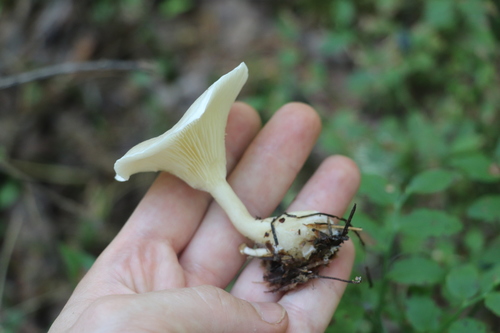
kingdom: Fungi
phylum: Basidiomycota
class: Agaricomycetes
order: Agaricales
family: Hygrophoraceae
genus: Ampulloclitocybe
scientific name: Ampulloclitocybe clavipes
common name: Club foot
